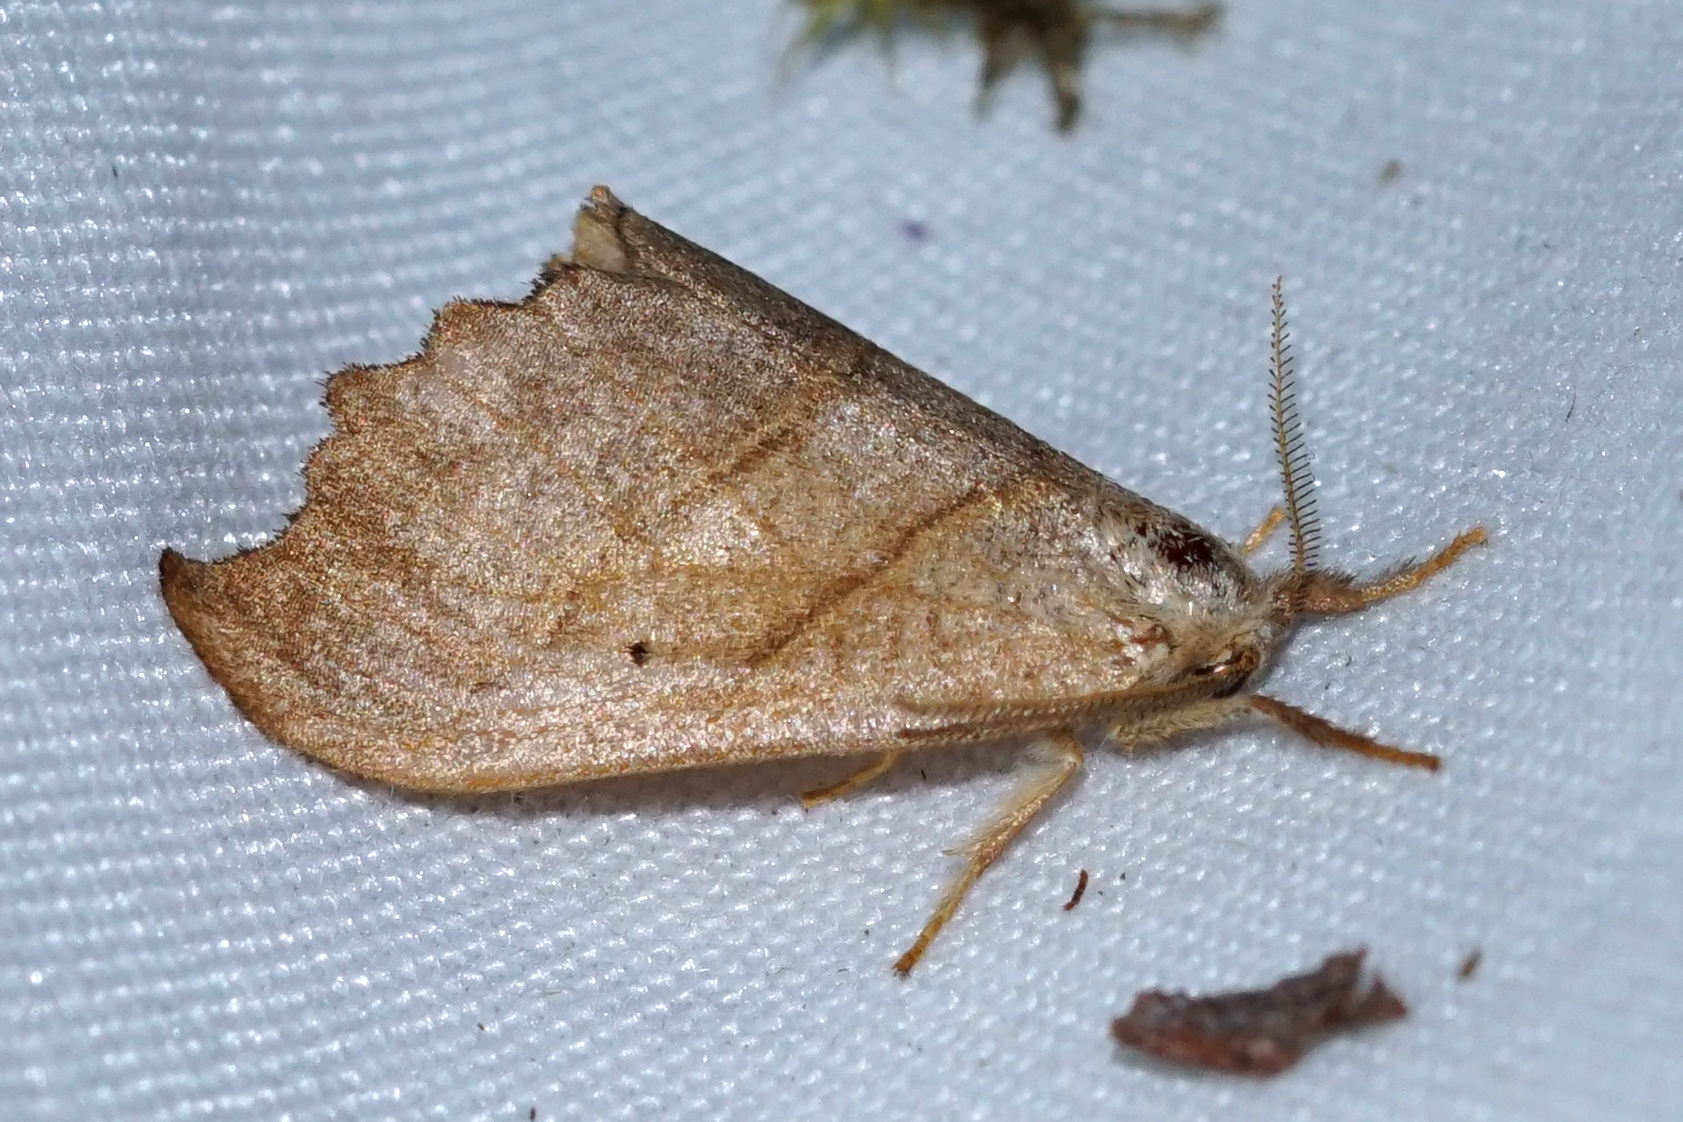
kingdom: Animalia
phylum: Arthropoda
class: Insecta
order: Lepidoptera
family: Drepanidae
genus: Falcaria
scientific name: Falcaria lacertinaria
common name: Scalloped hook-tip
